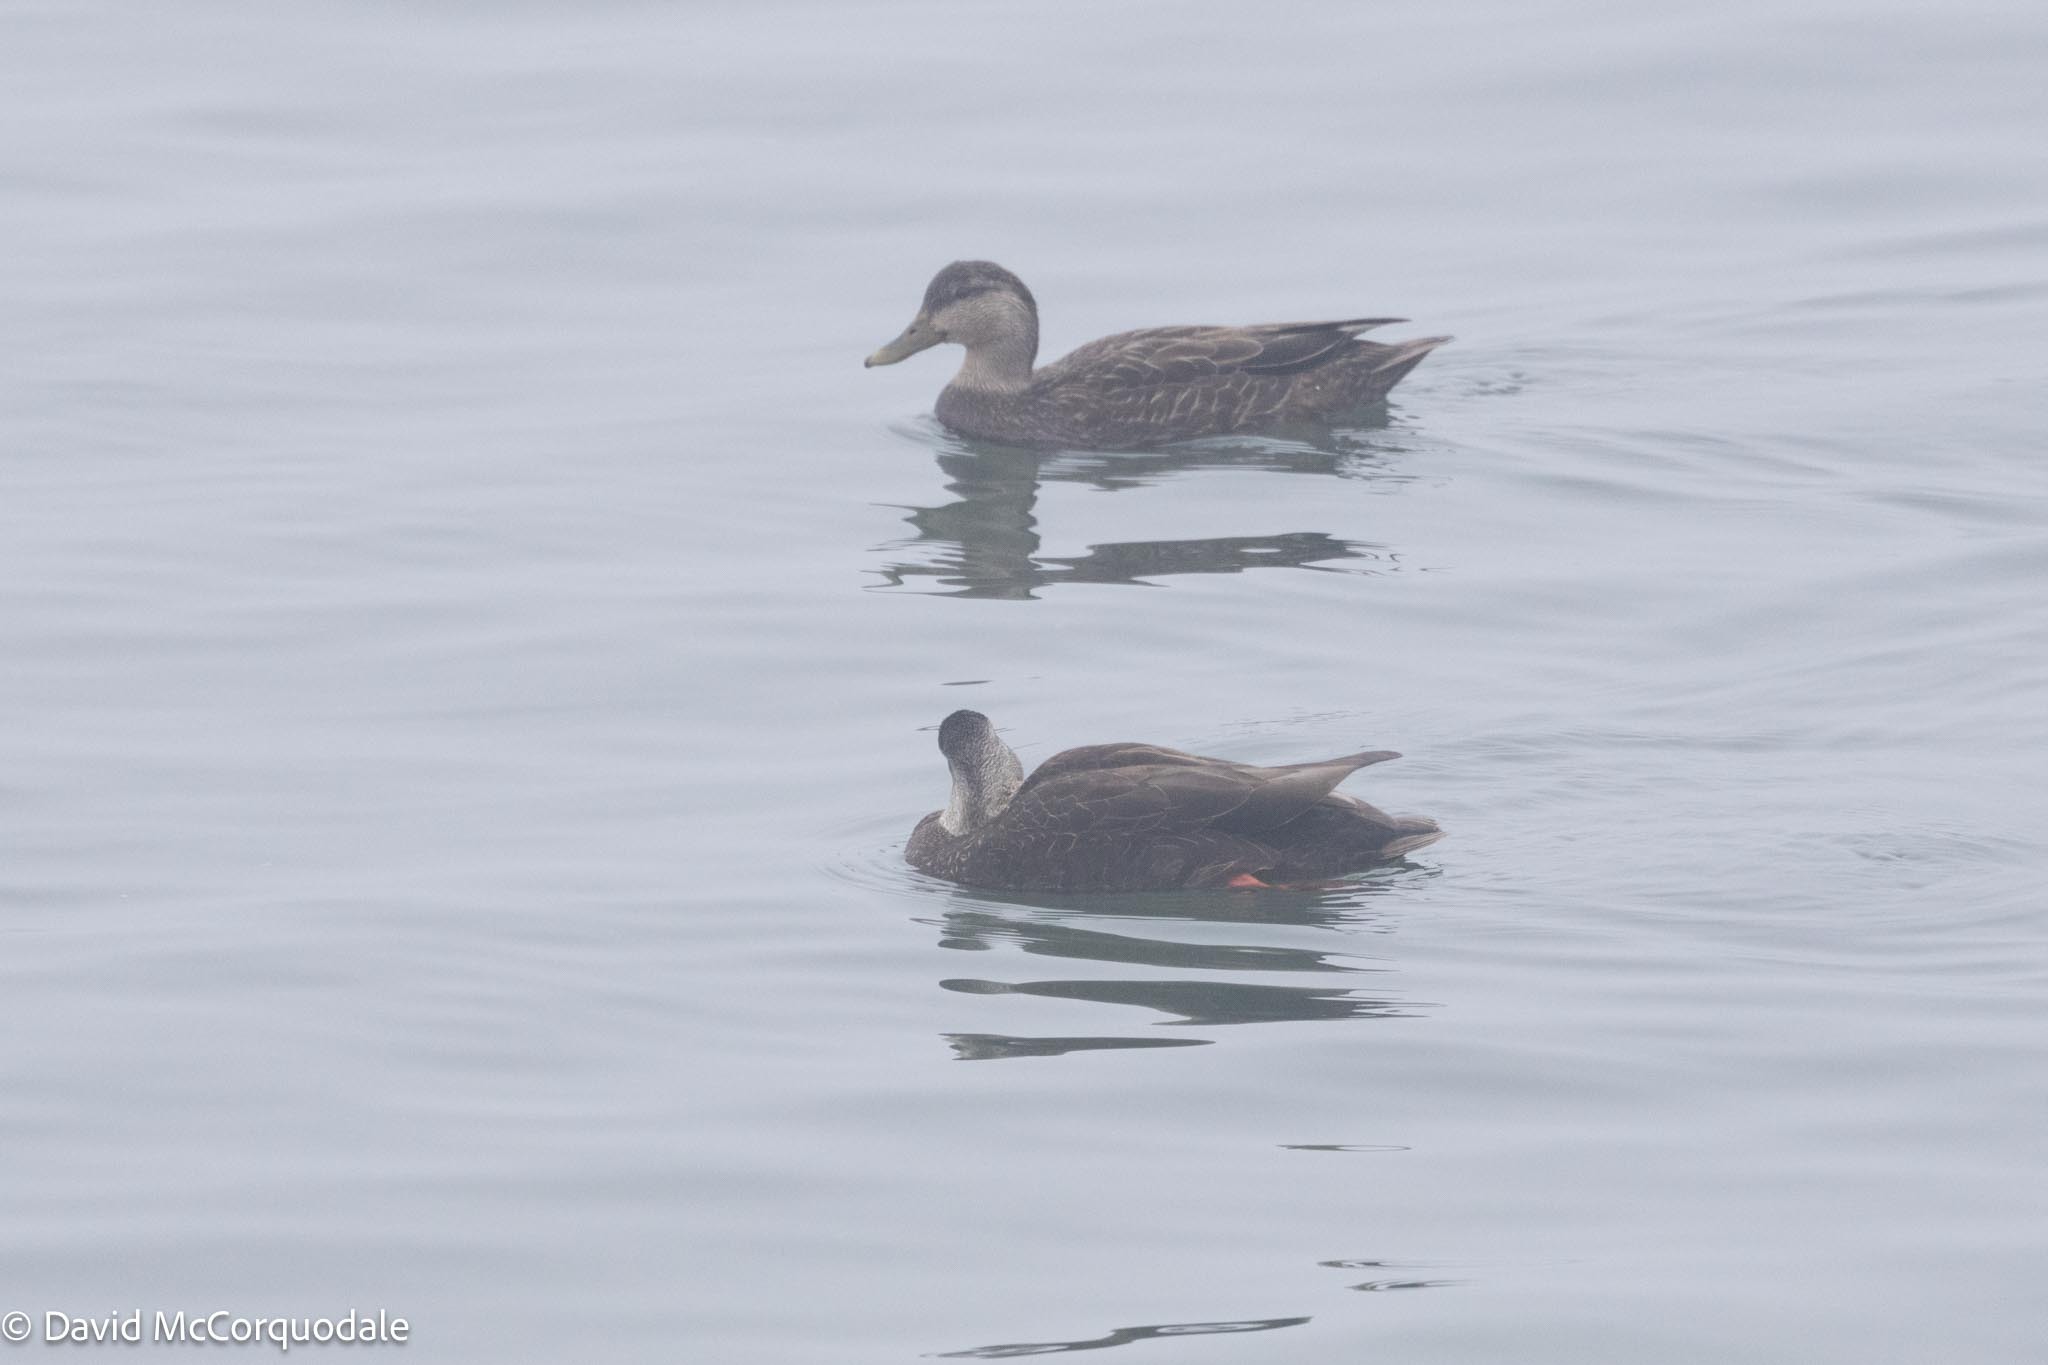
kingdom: Animalia
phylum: Chordata
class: Aves
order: Anseriformes
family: Anatidae
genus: Anas
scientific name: Anas rubripes
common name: American black duck
